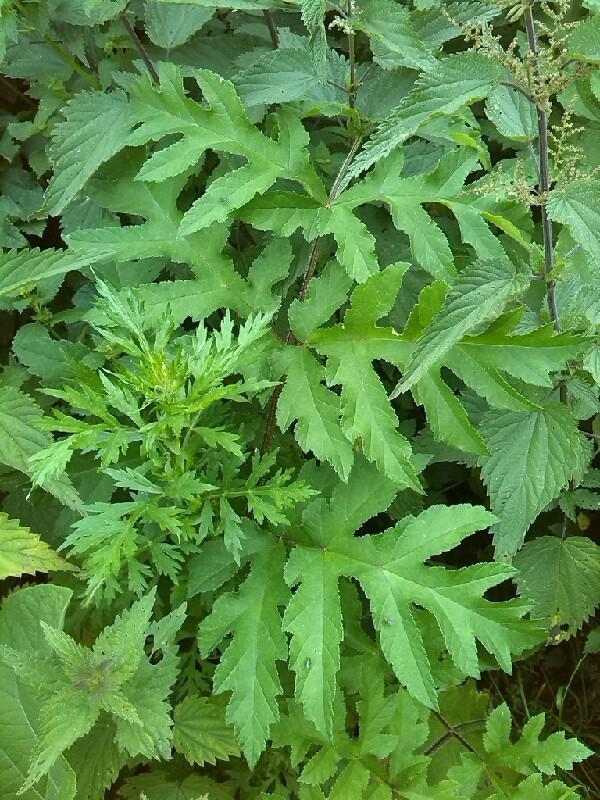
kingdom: Plantae
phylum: Tracheophyta
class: Magnoliopsida
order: Asterales
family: Asteraceae
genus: Artemisia
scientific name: Artemisia vulgaris
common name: Mugwort
